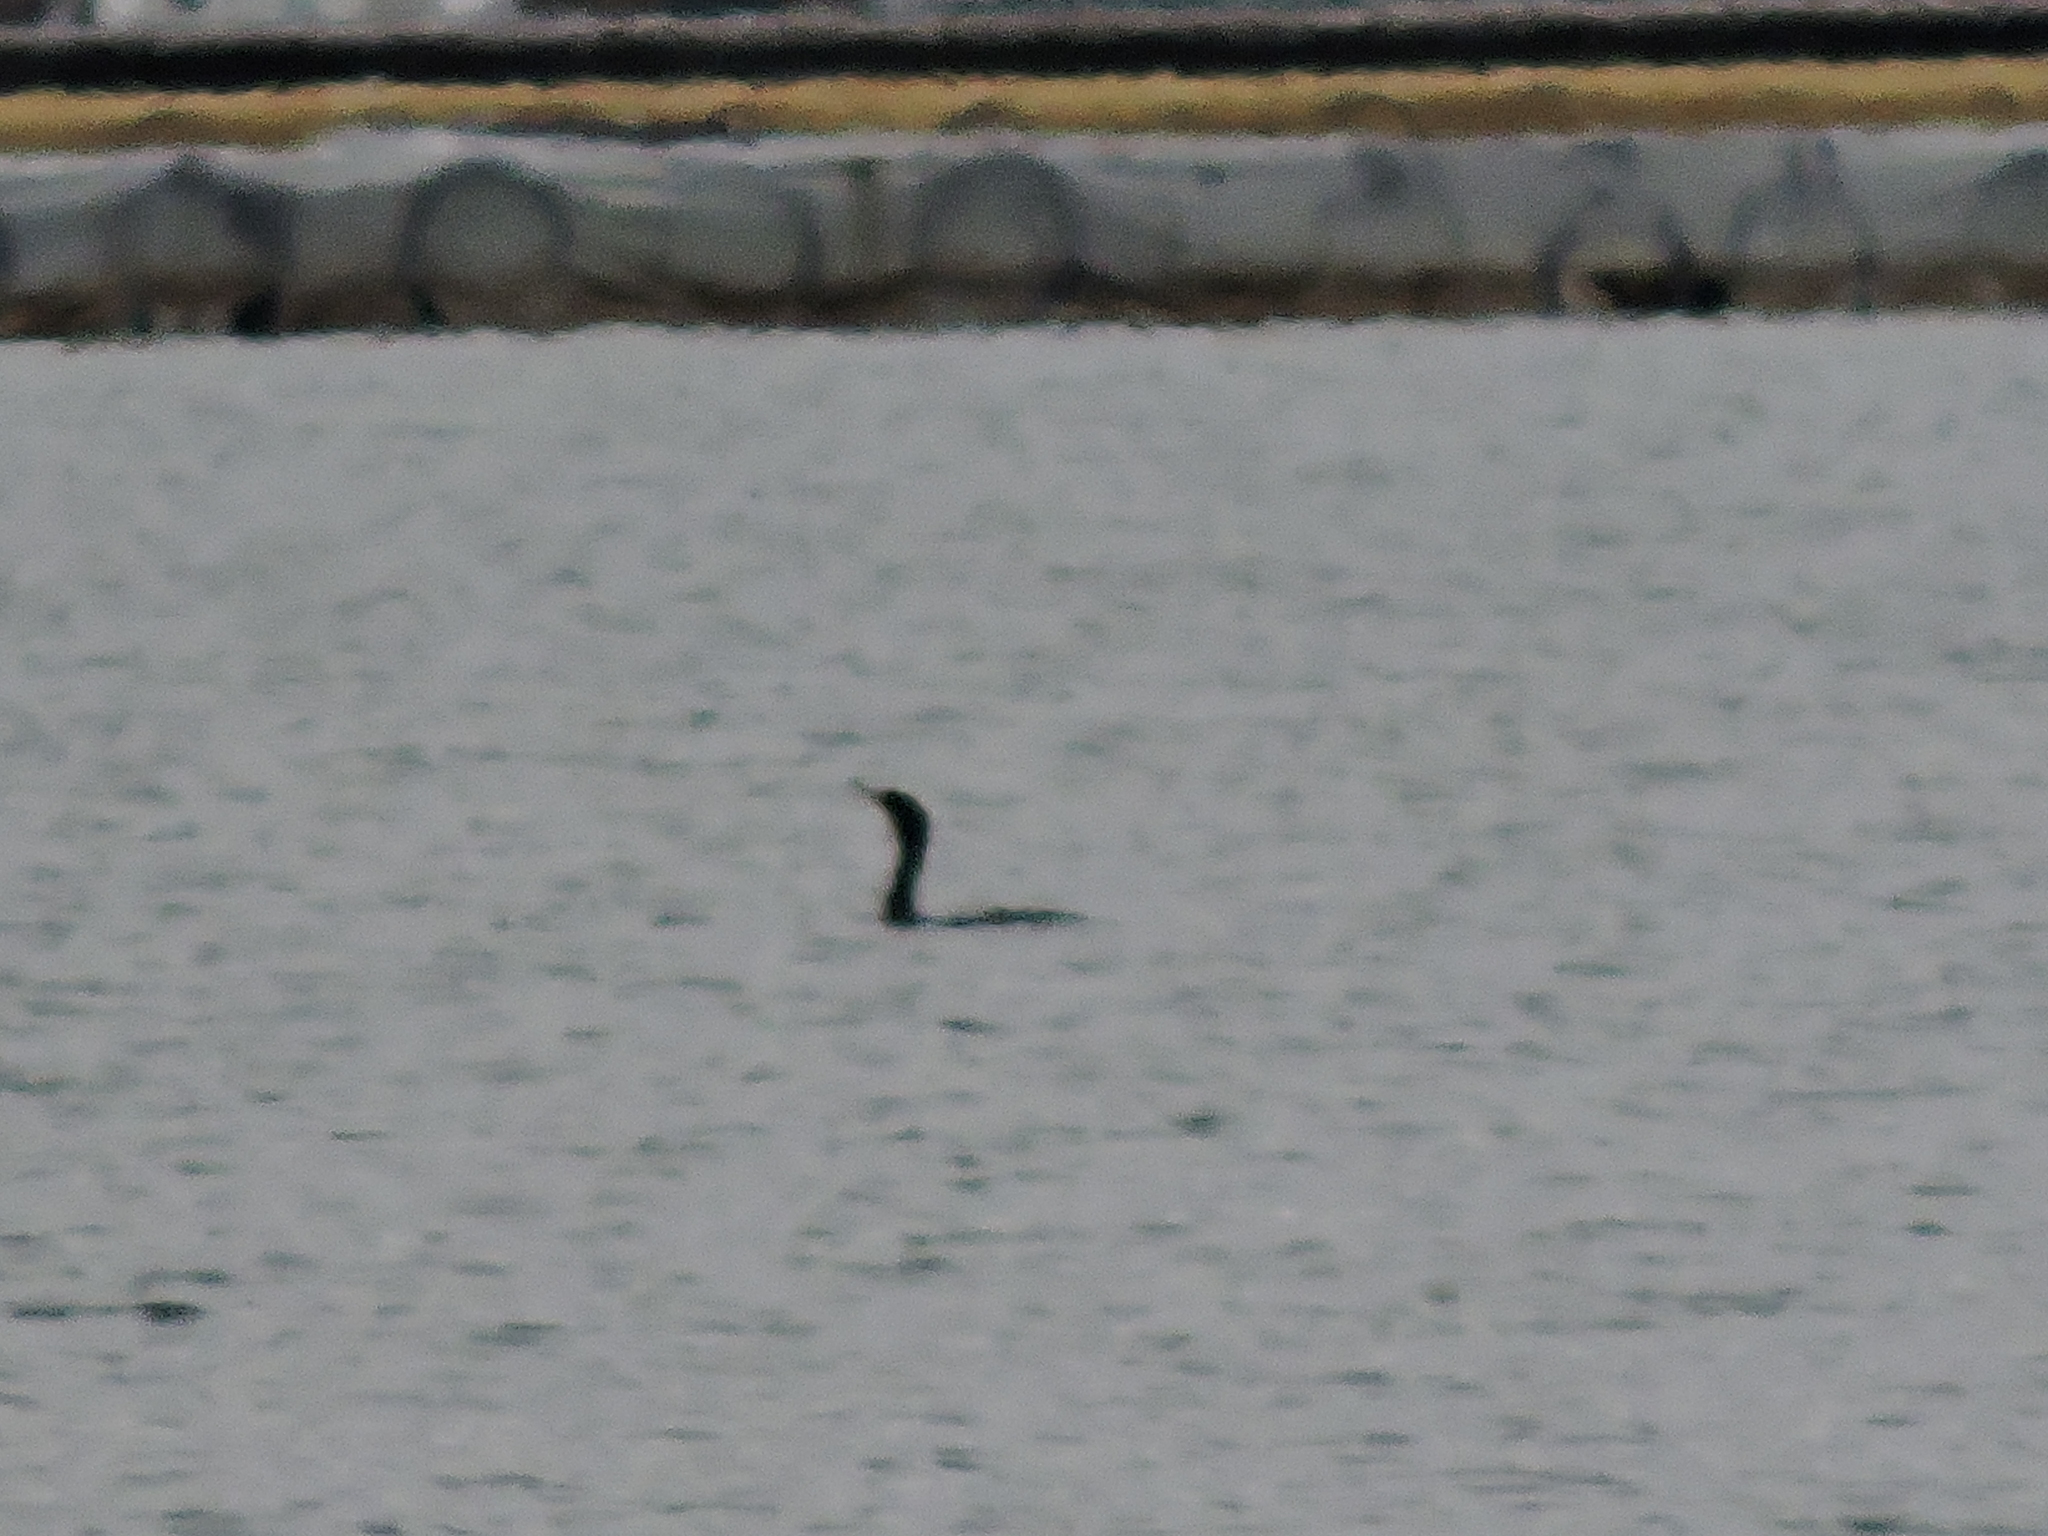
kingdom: Animalia
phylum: Chordata
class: Aves
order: Suliformes
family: Phalacrocoracidae
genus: Phalacrocorax
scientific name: Phalacrocorax auritus
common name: Double-crested cormorant
